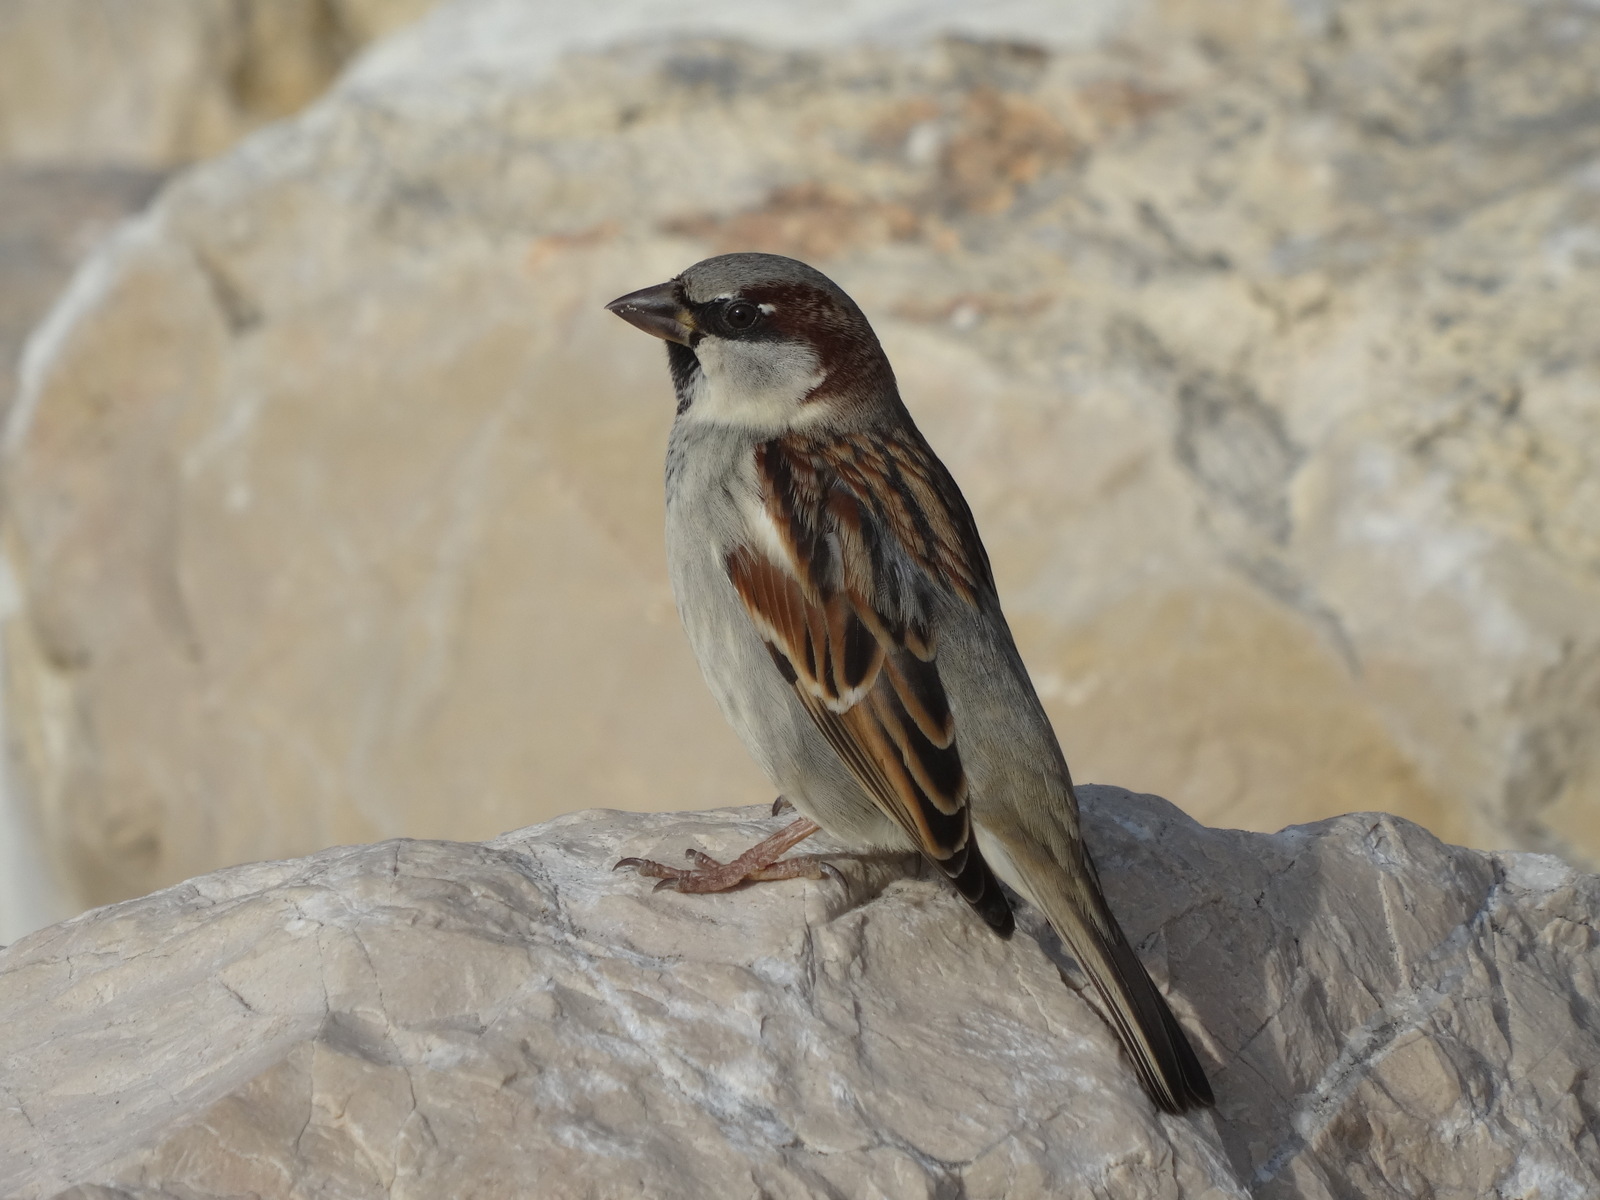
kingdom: Animalia
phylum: Chordata
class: Aves
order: Passeriformes
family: Passeridae
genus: Passer
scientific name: Passer domesticus
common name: House sparrow
